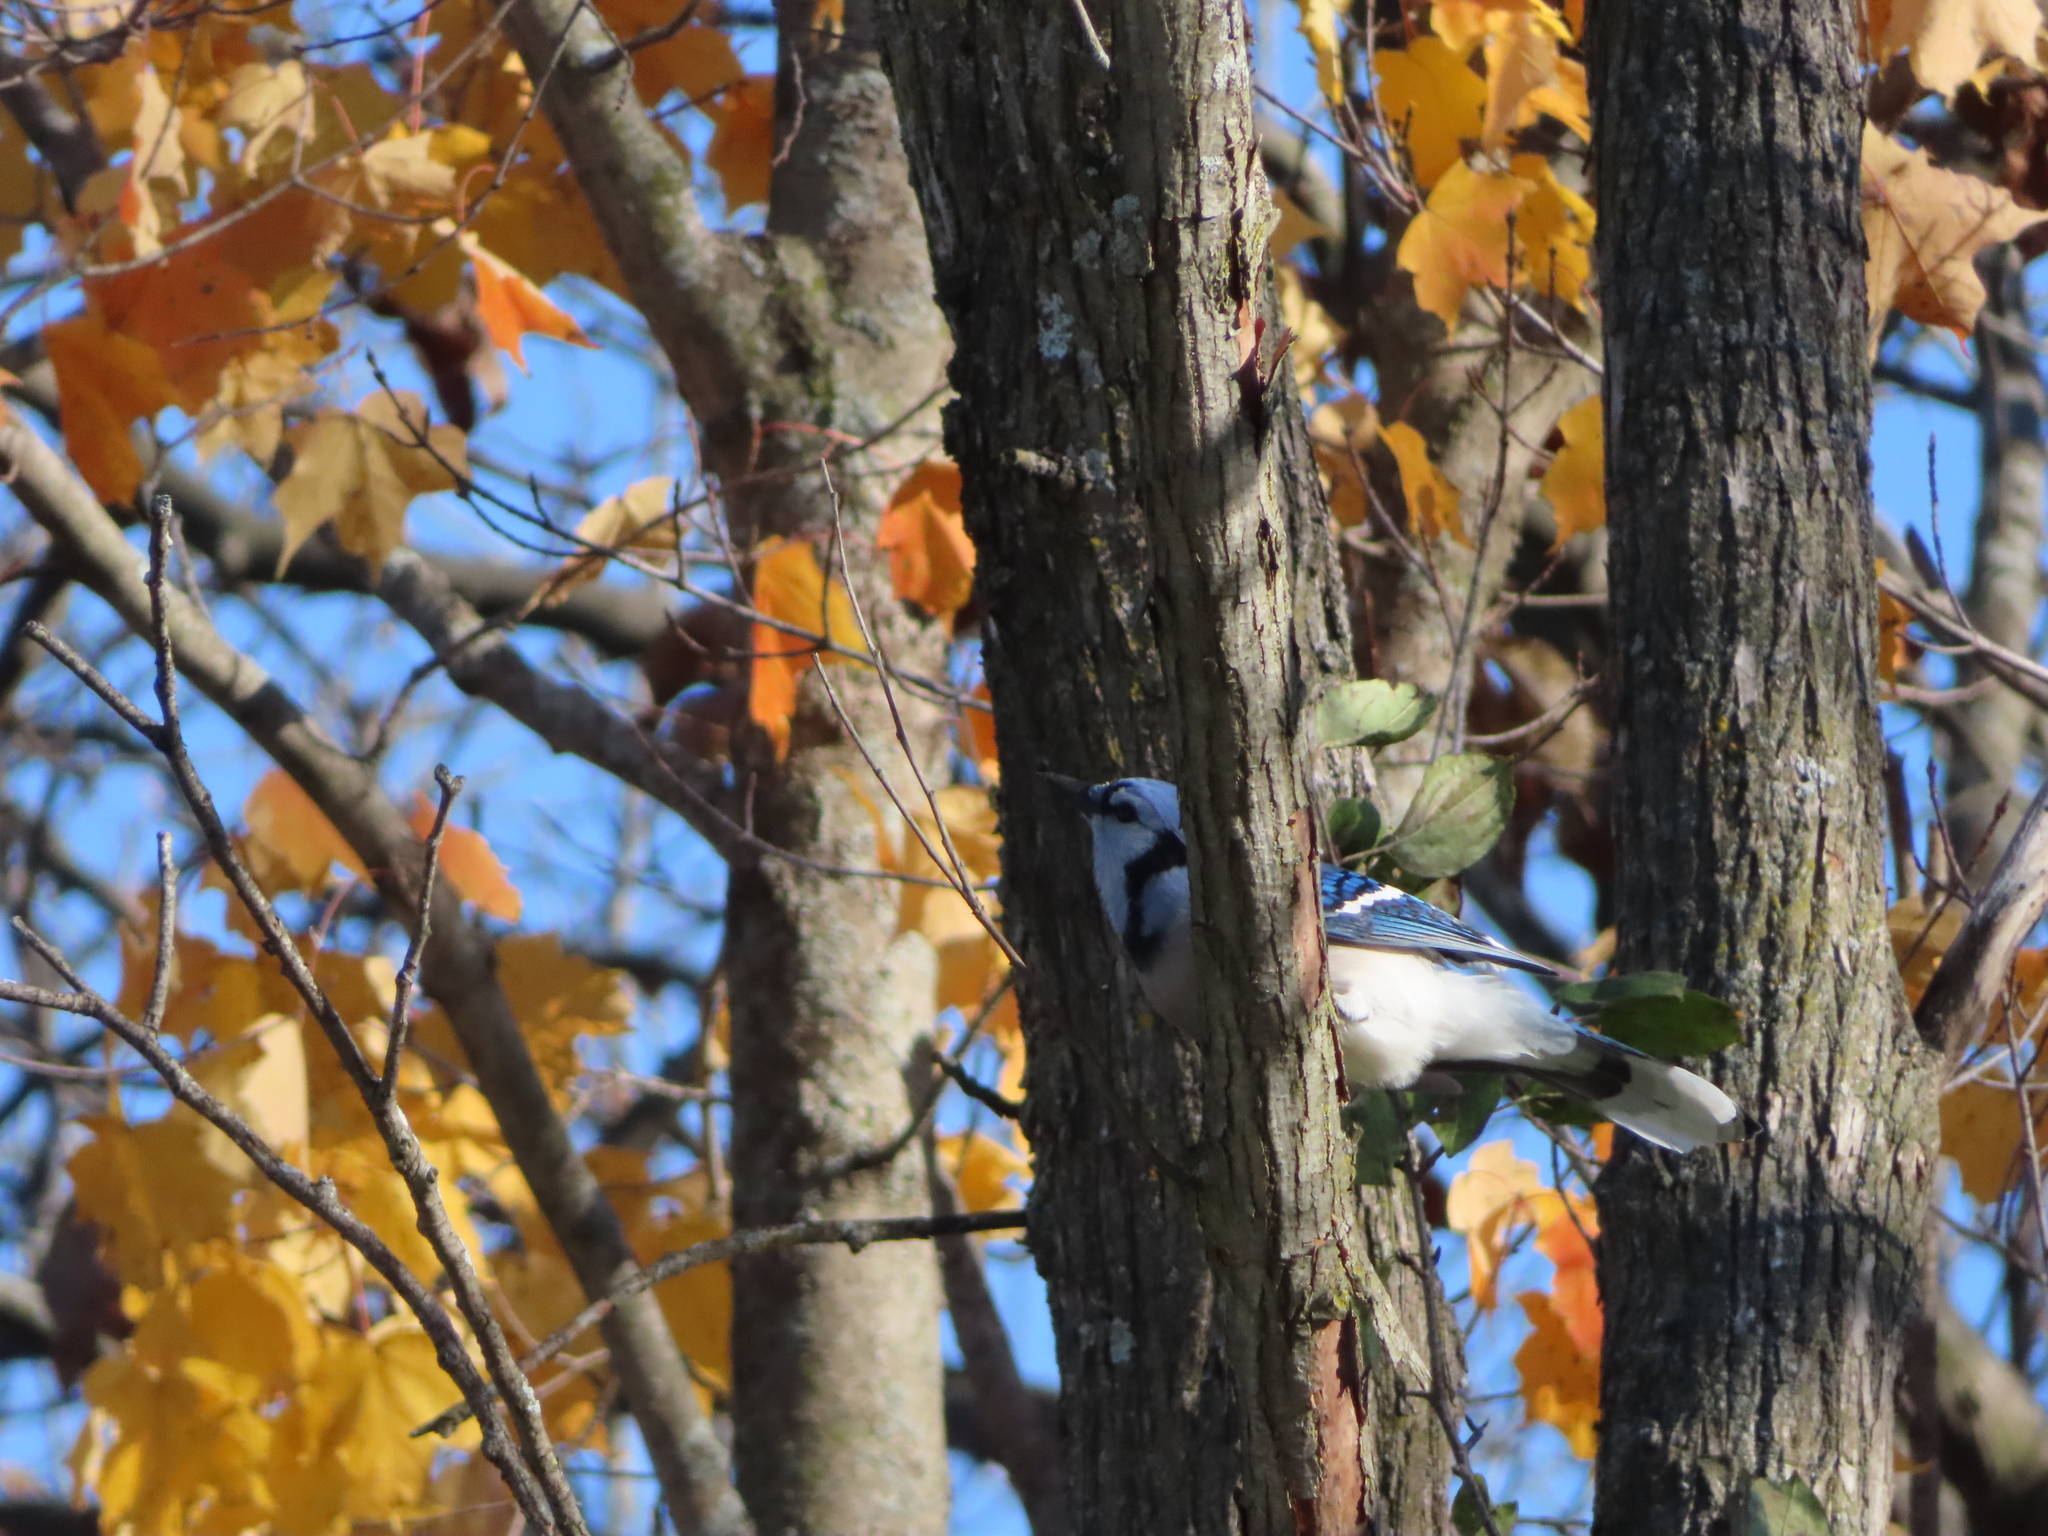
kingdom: Animalia
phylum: Chordata
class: Aves
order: Passeriformes
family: Corvidae
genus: Cyanocitta
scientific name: Cyanocitta cristata
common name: Blue jay
